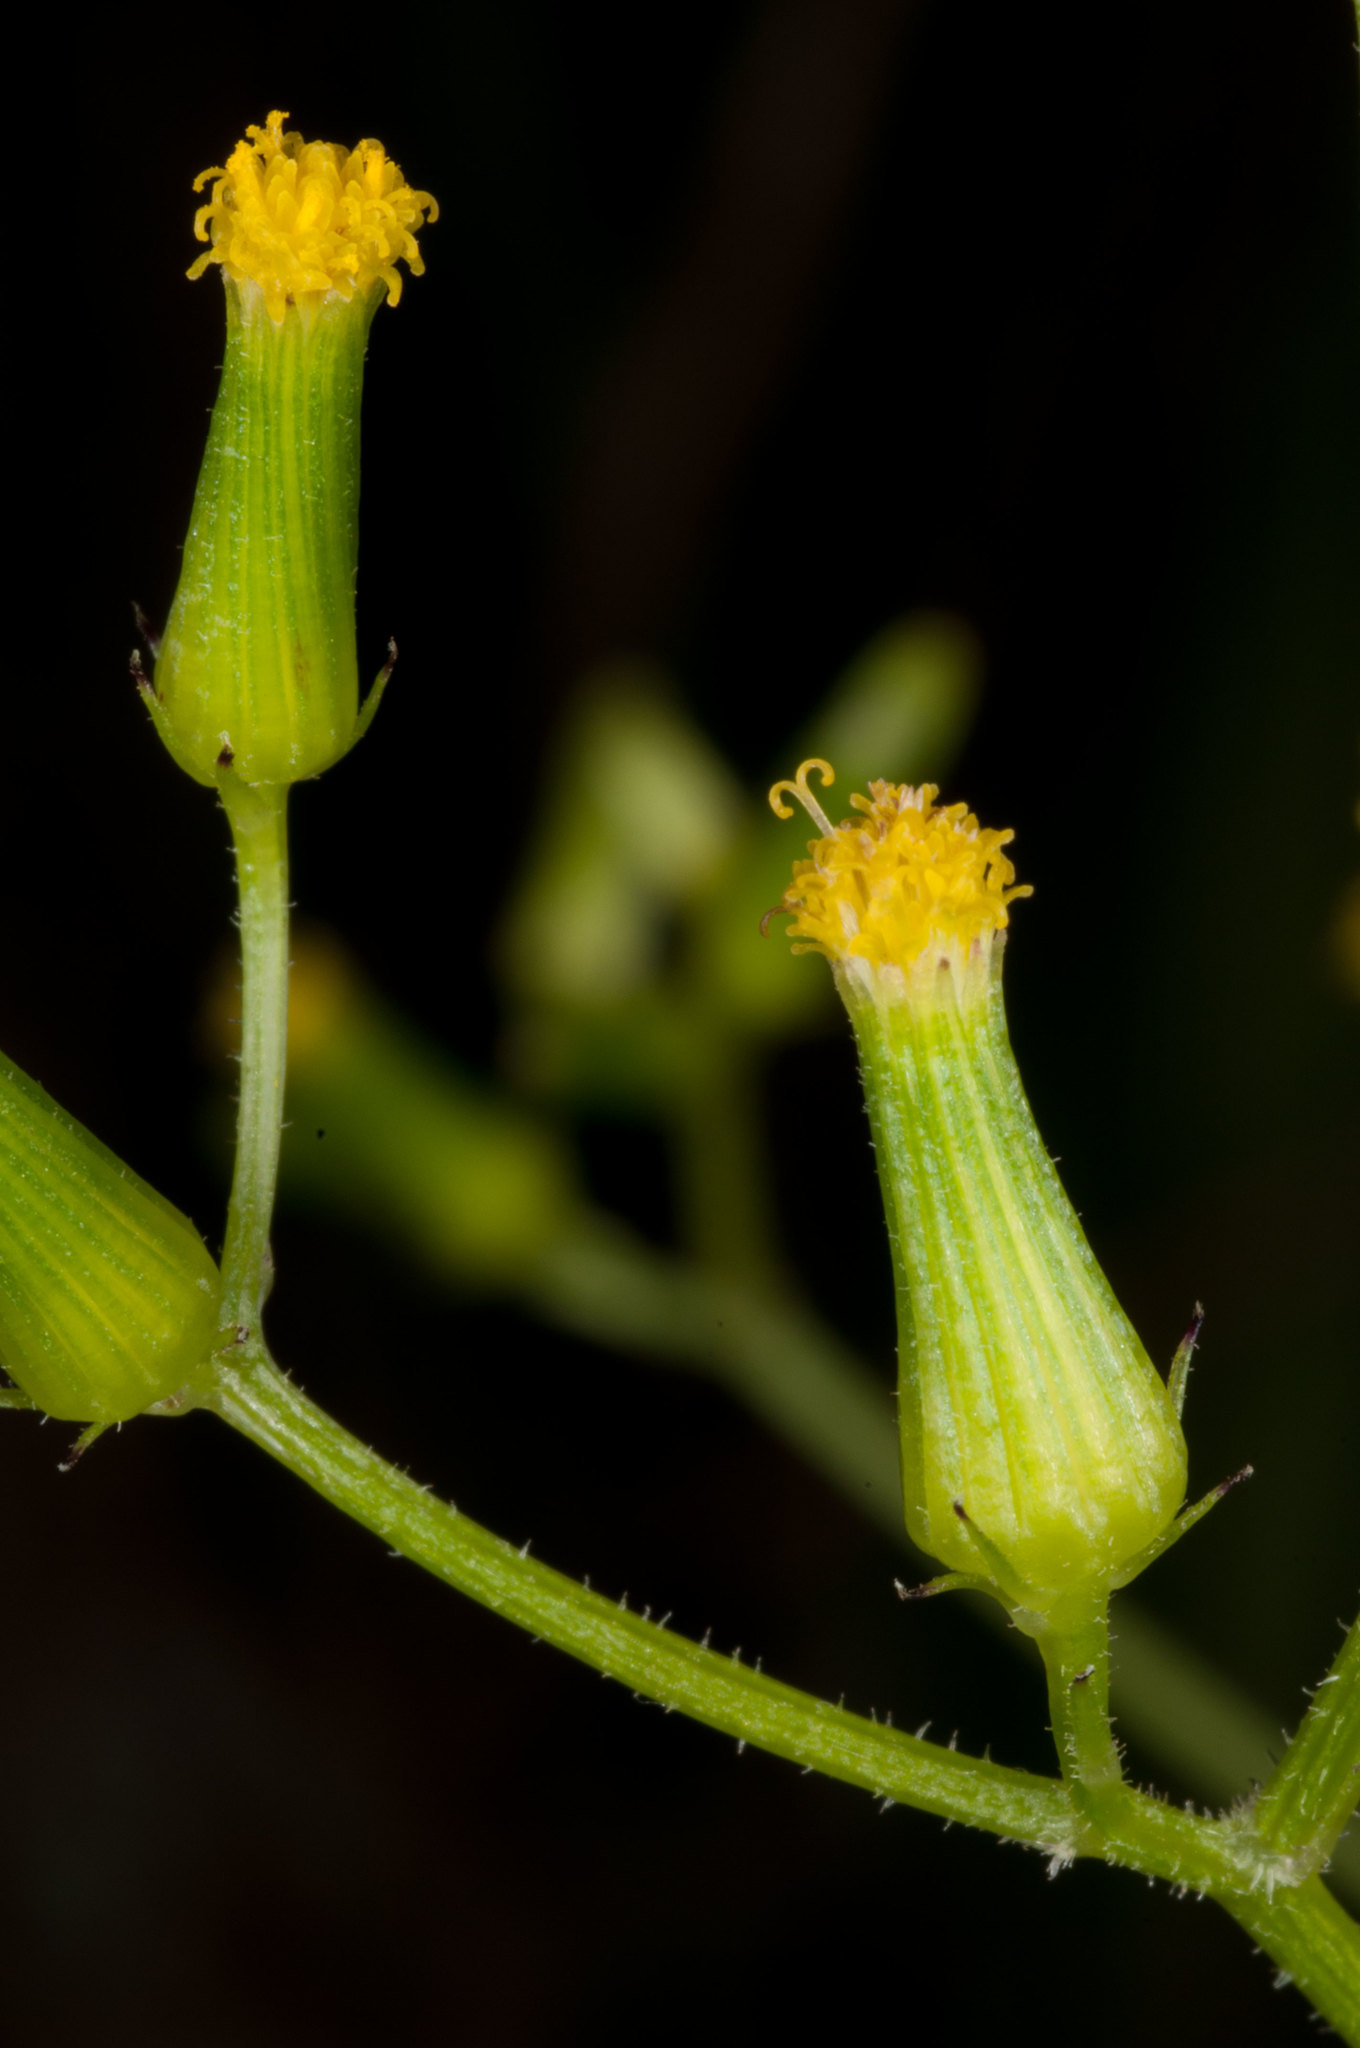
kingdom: Plantae
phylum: Tracheophyta
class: Magnoliopsida
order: Asterales
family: Asteraceae
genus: Senecio
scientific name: Senecio scaberulus
